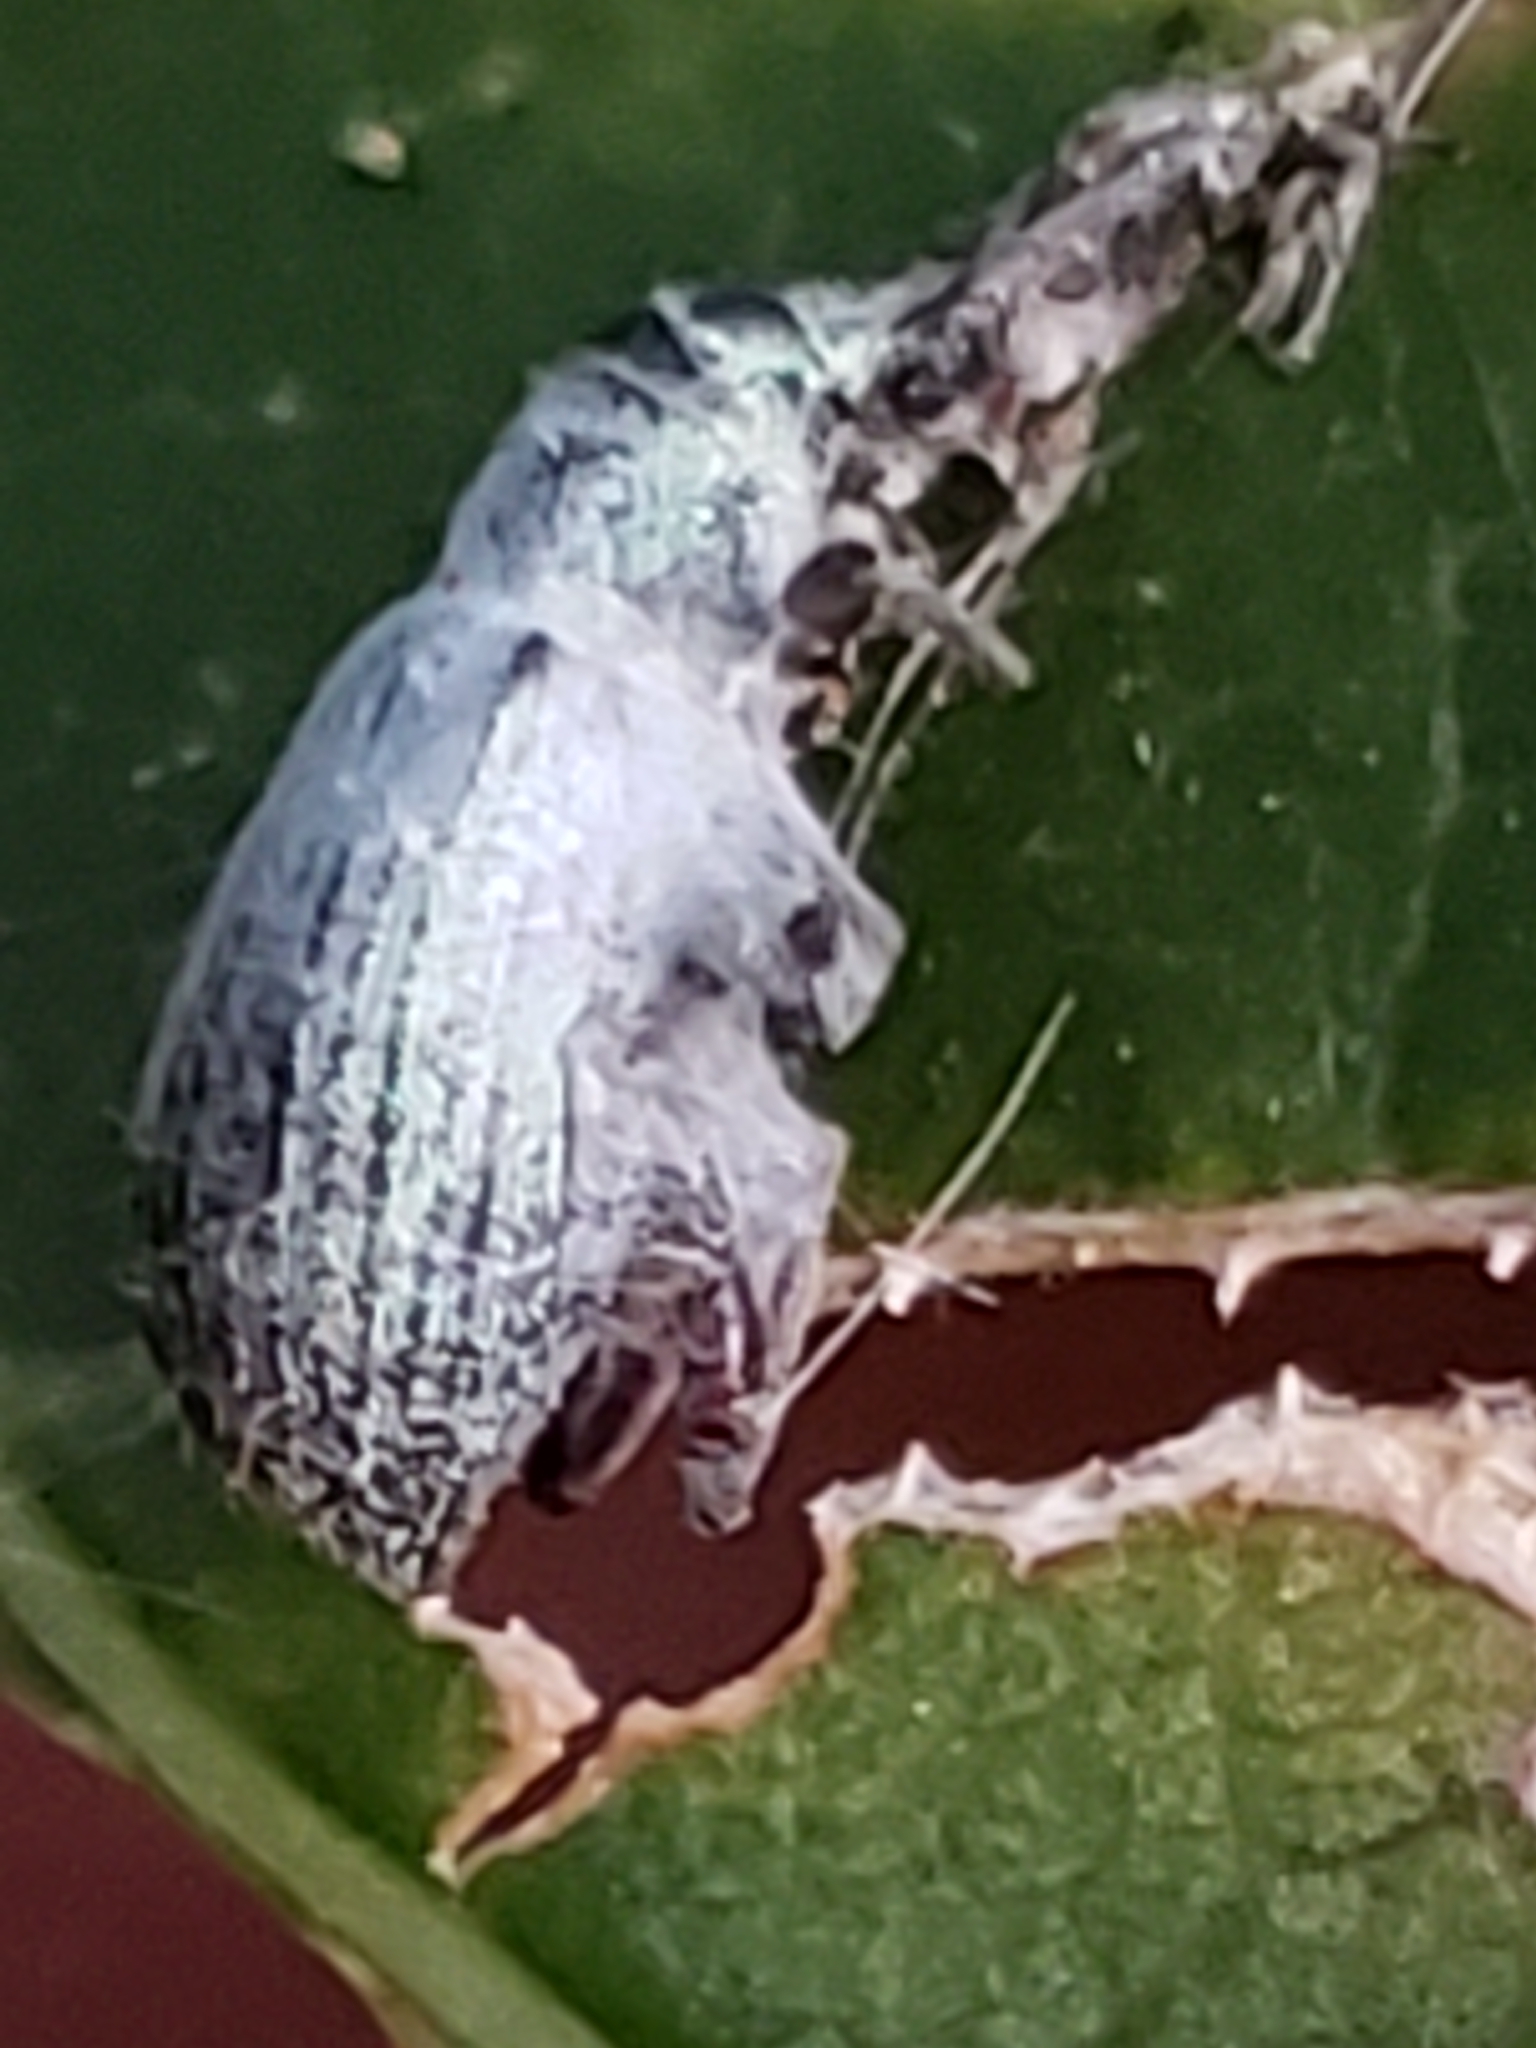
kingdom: Animalia
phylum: Arthropoda
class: Insecta
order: Coleoptera
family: Curculionidae
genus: Cyrtepistomus
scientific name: Cyrtepistomus castaneus
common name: Weevil
